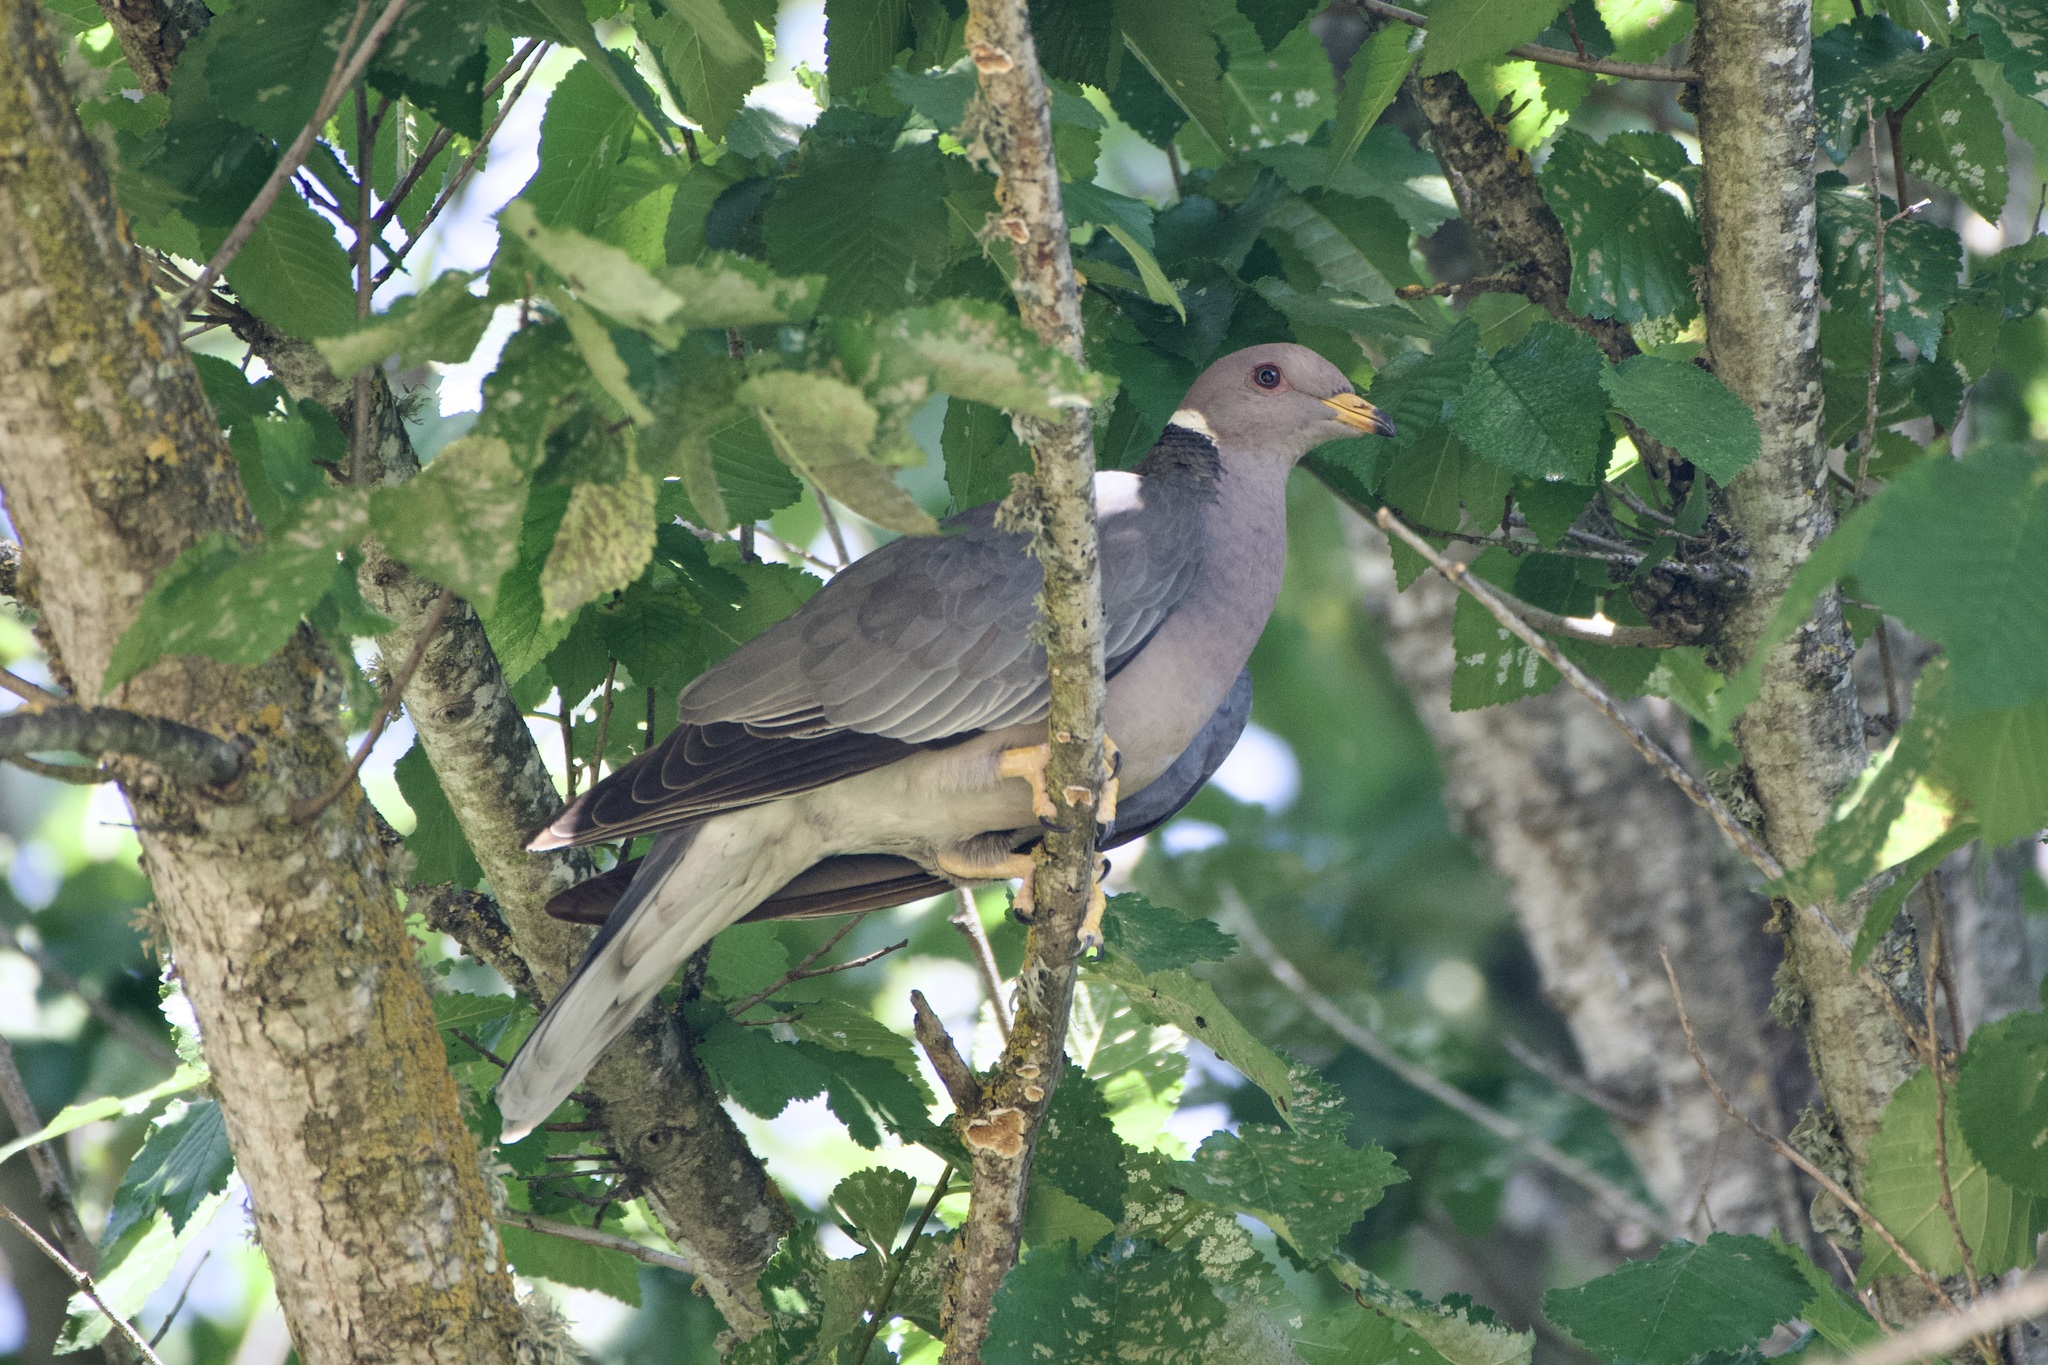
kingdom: Animalia
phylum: Chordata
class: Aves
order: Columbiformes
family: Columbidae
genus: Patagioenas
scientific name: Patagioenas fasciata
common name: Band-tailed pigeon
